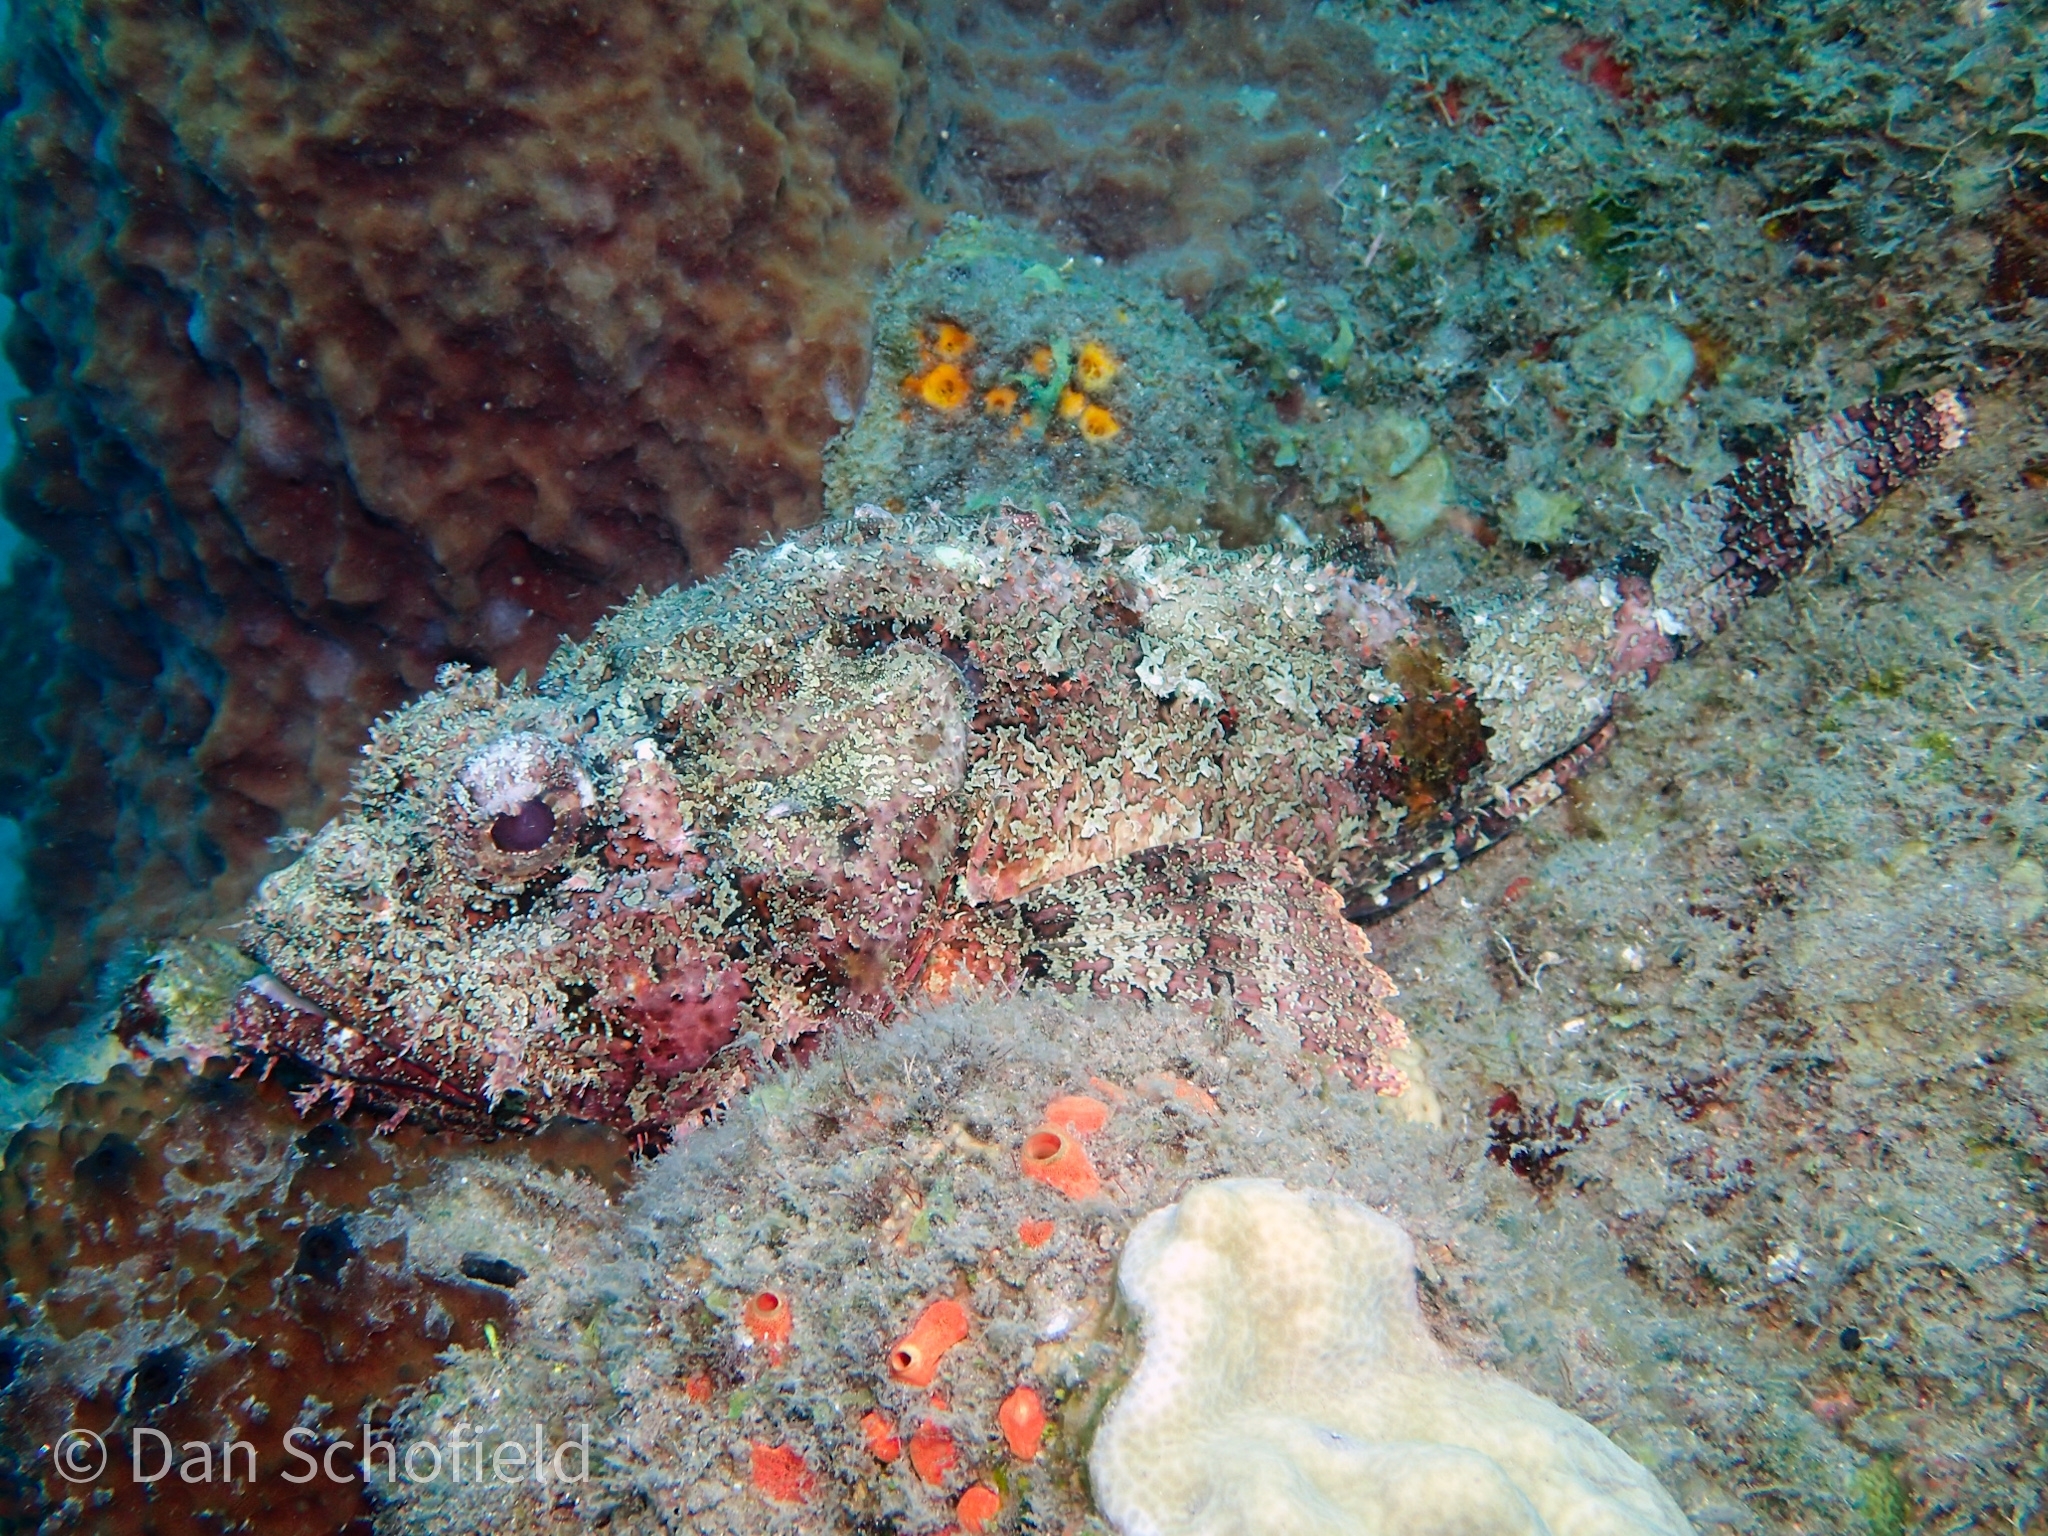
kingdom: Animalia
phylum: Chordata
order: Scorpaeniformes
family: Scorpaenidae
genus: Scorpaena
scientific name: Scorpaena plumieri
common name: Spotted scorpionfish
